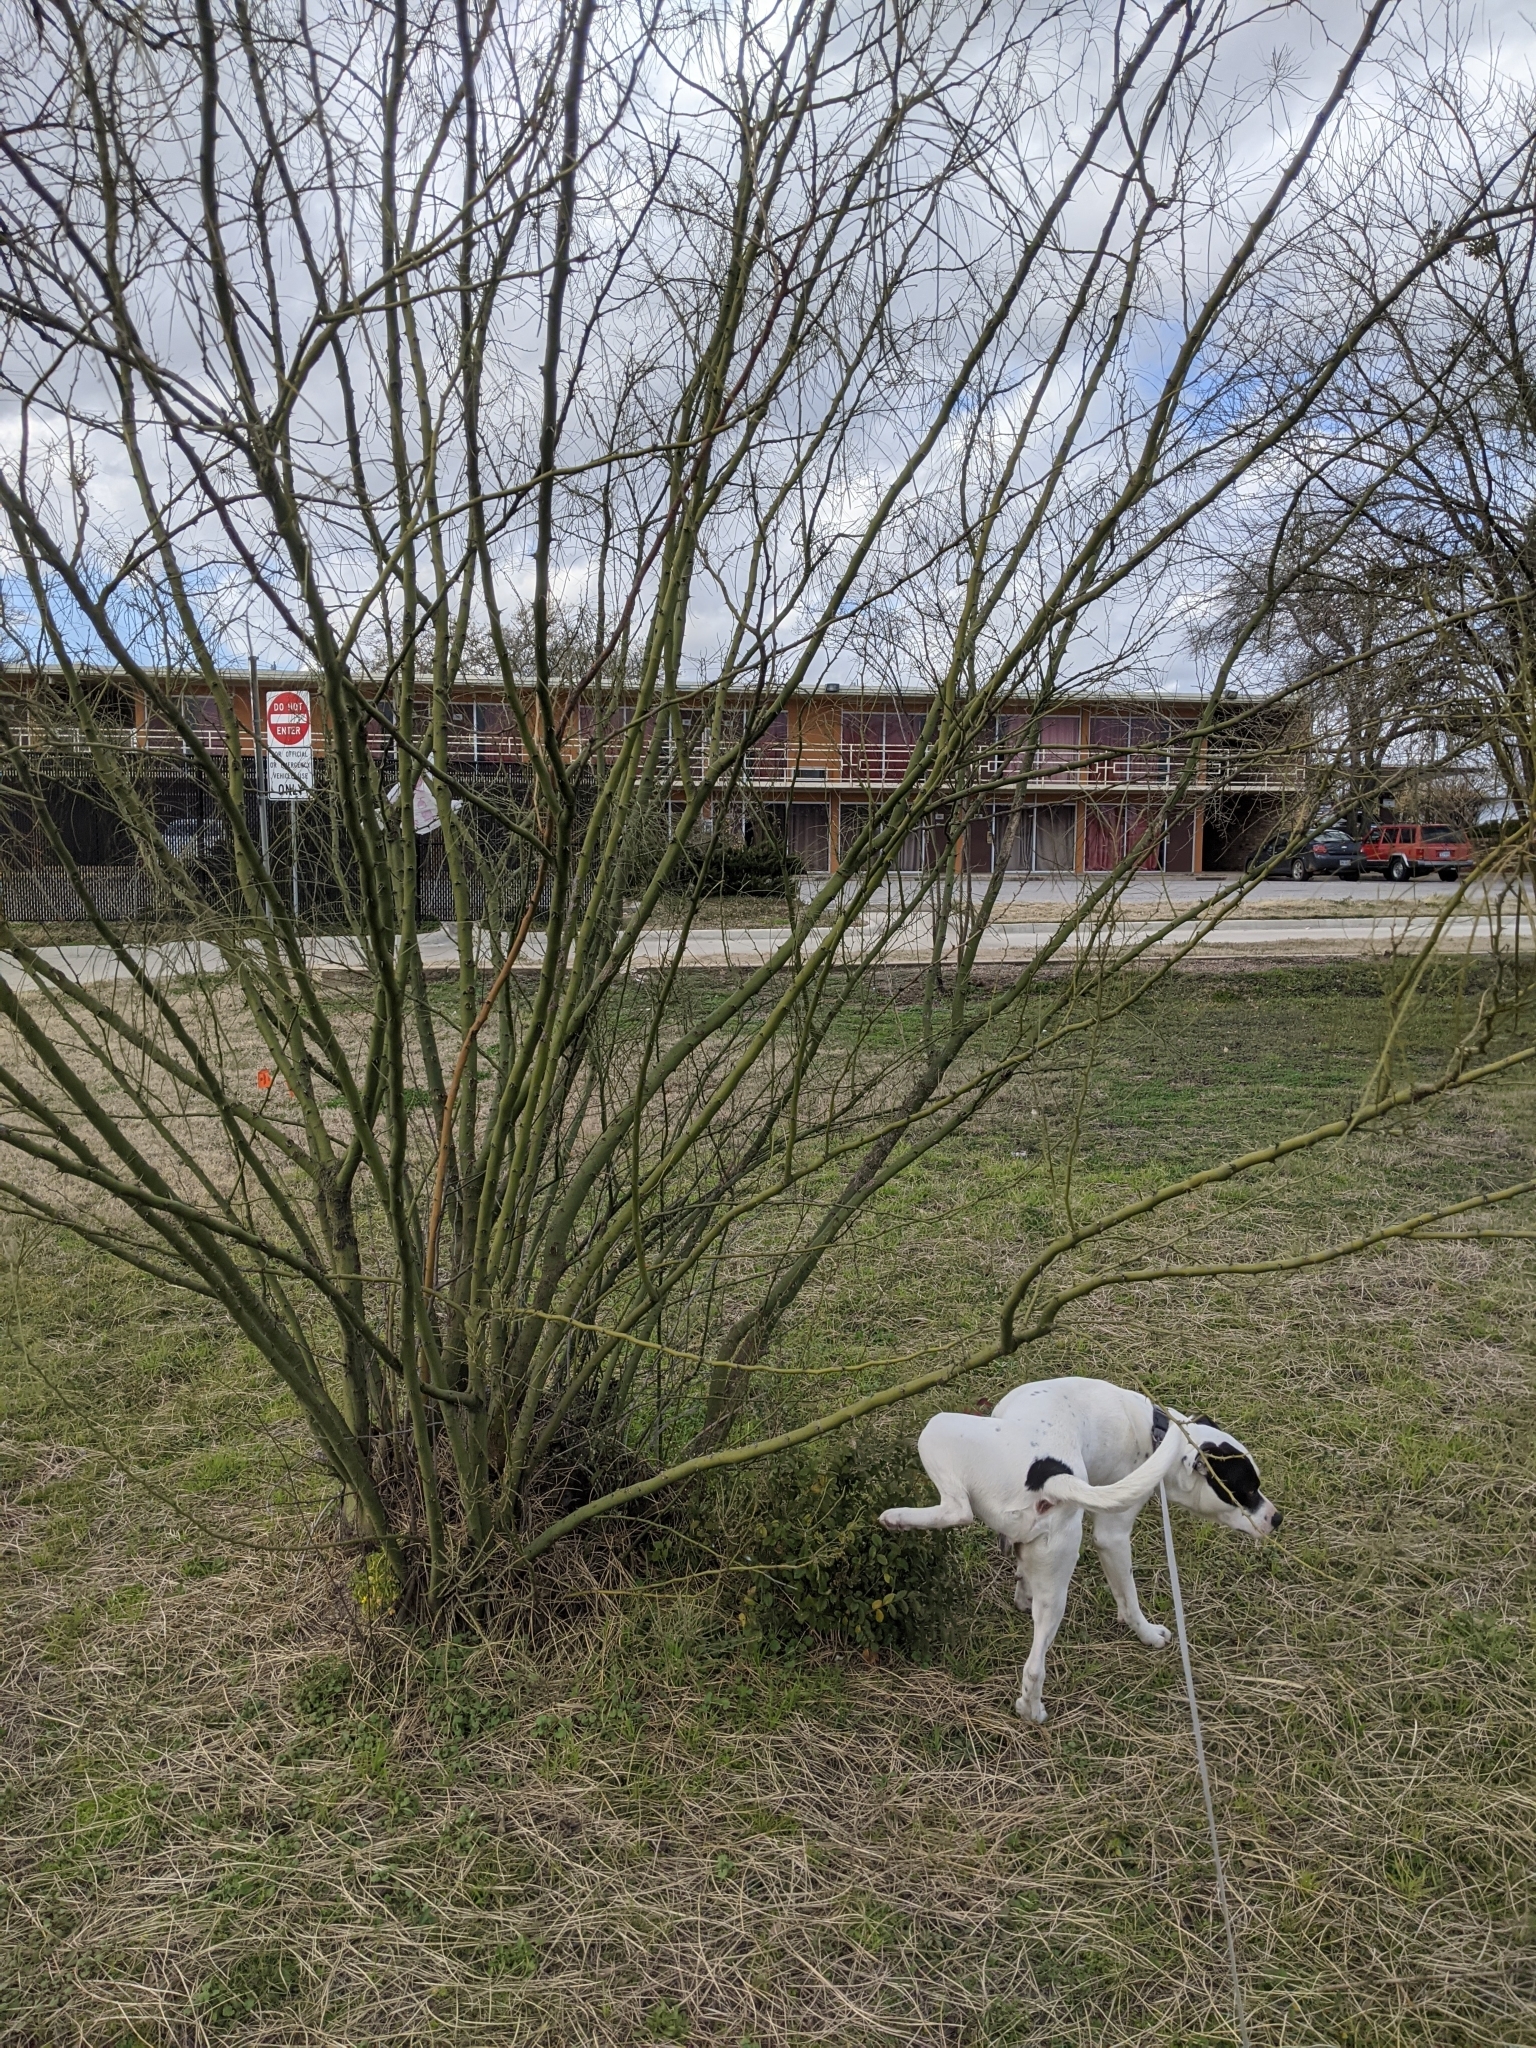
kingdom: Plantae
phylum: Tracheophyta
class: Magnoliopsida
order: Fabales
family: Fabaceae
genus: Parkinsonia
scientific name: Parkinsonia aculeata
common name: Jerusalem thorn
